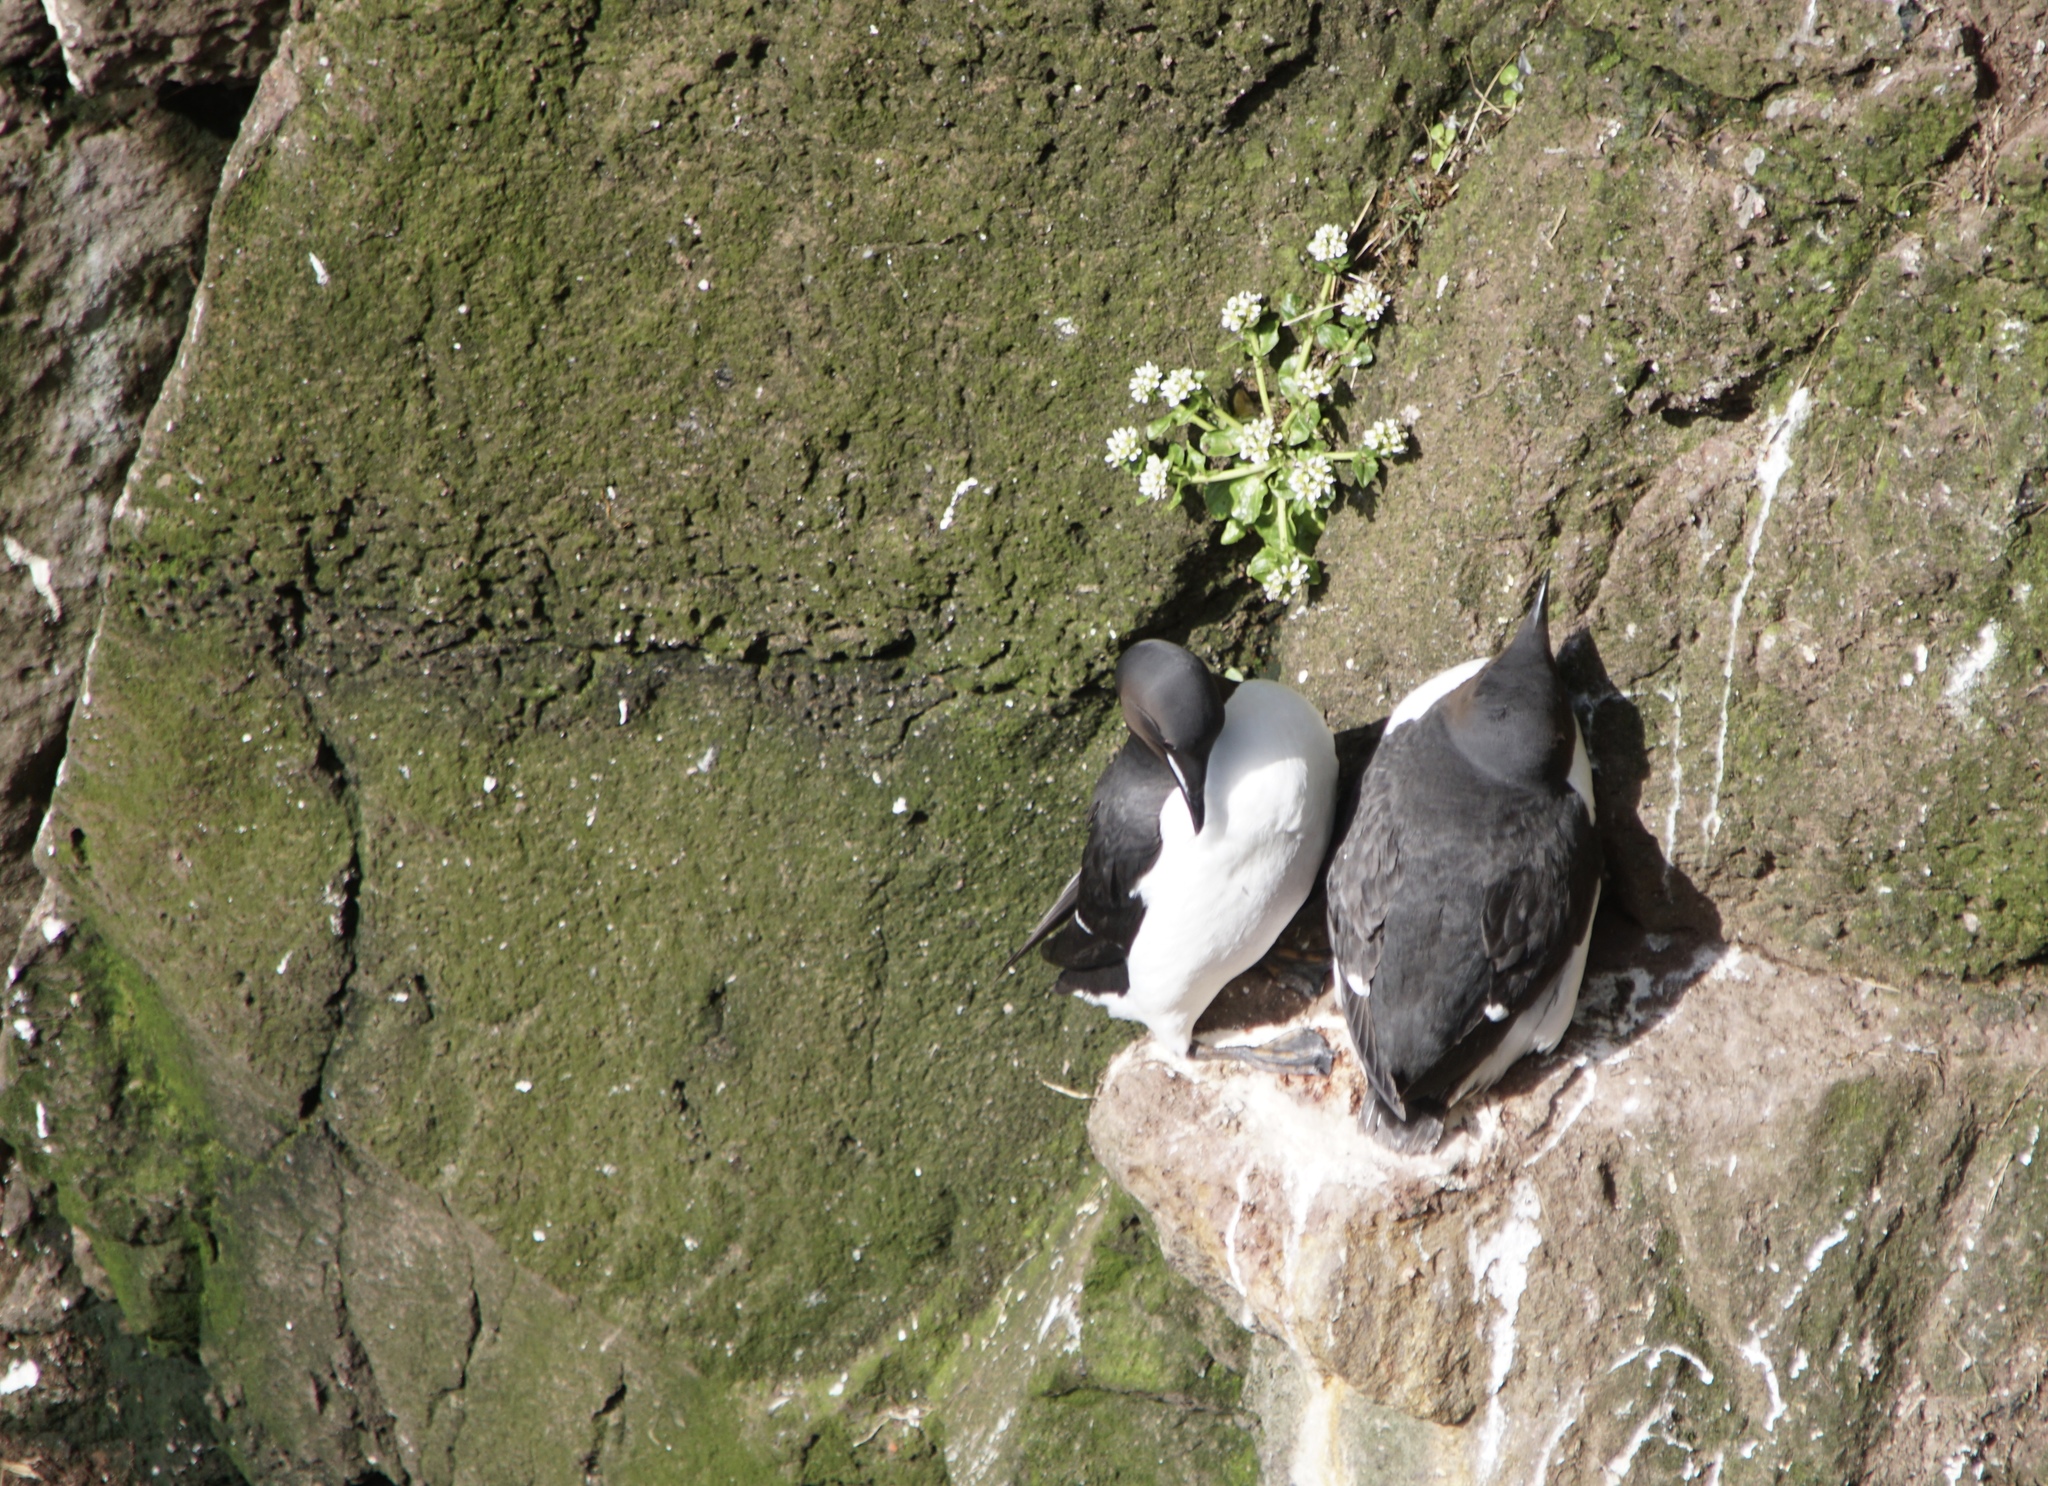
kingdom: Animalia
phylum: Chordata
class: Aves
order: Charadriiformes
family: Alcidae
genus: Uria
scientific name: Uria lomvia
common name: Thick-billed murre
